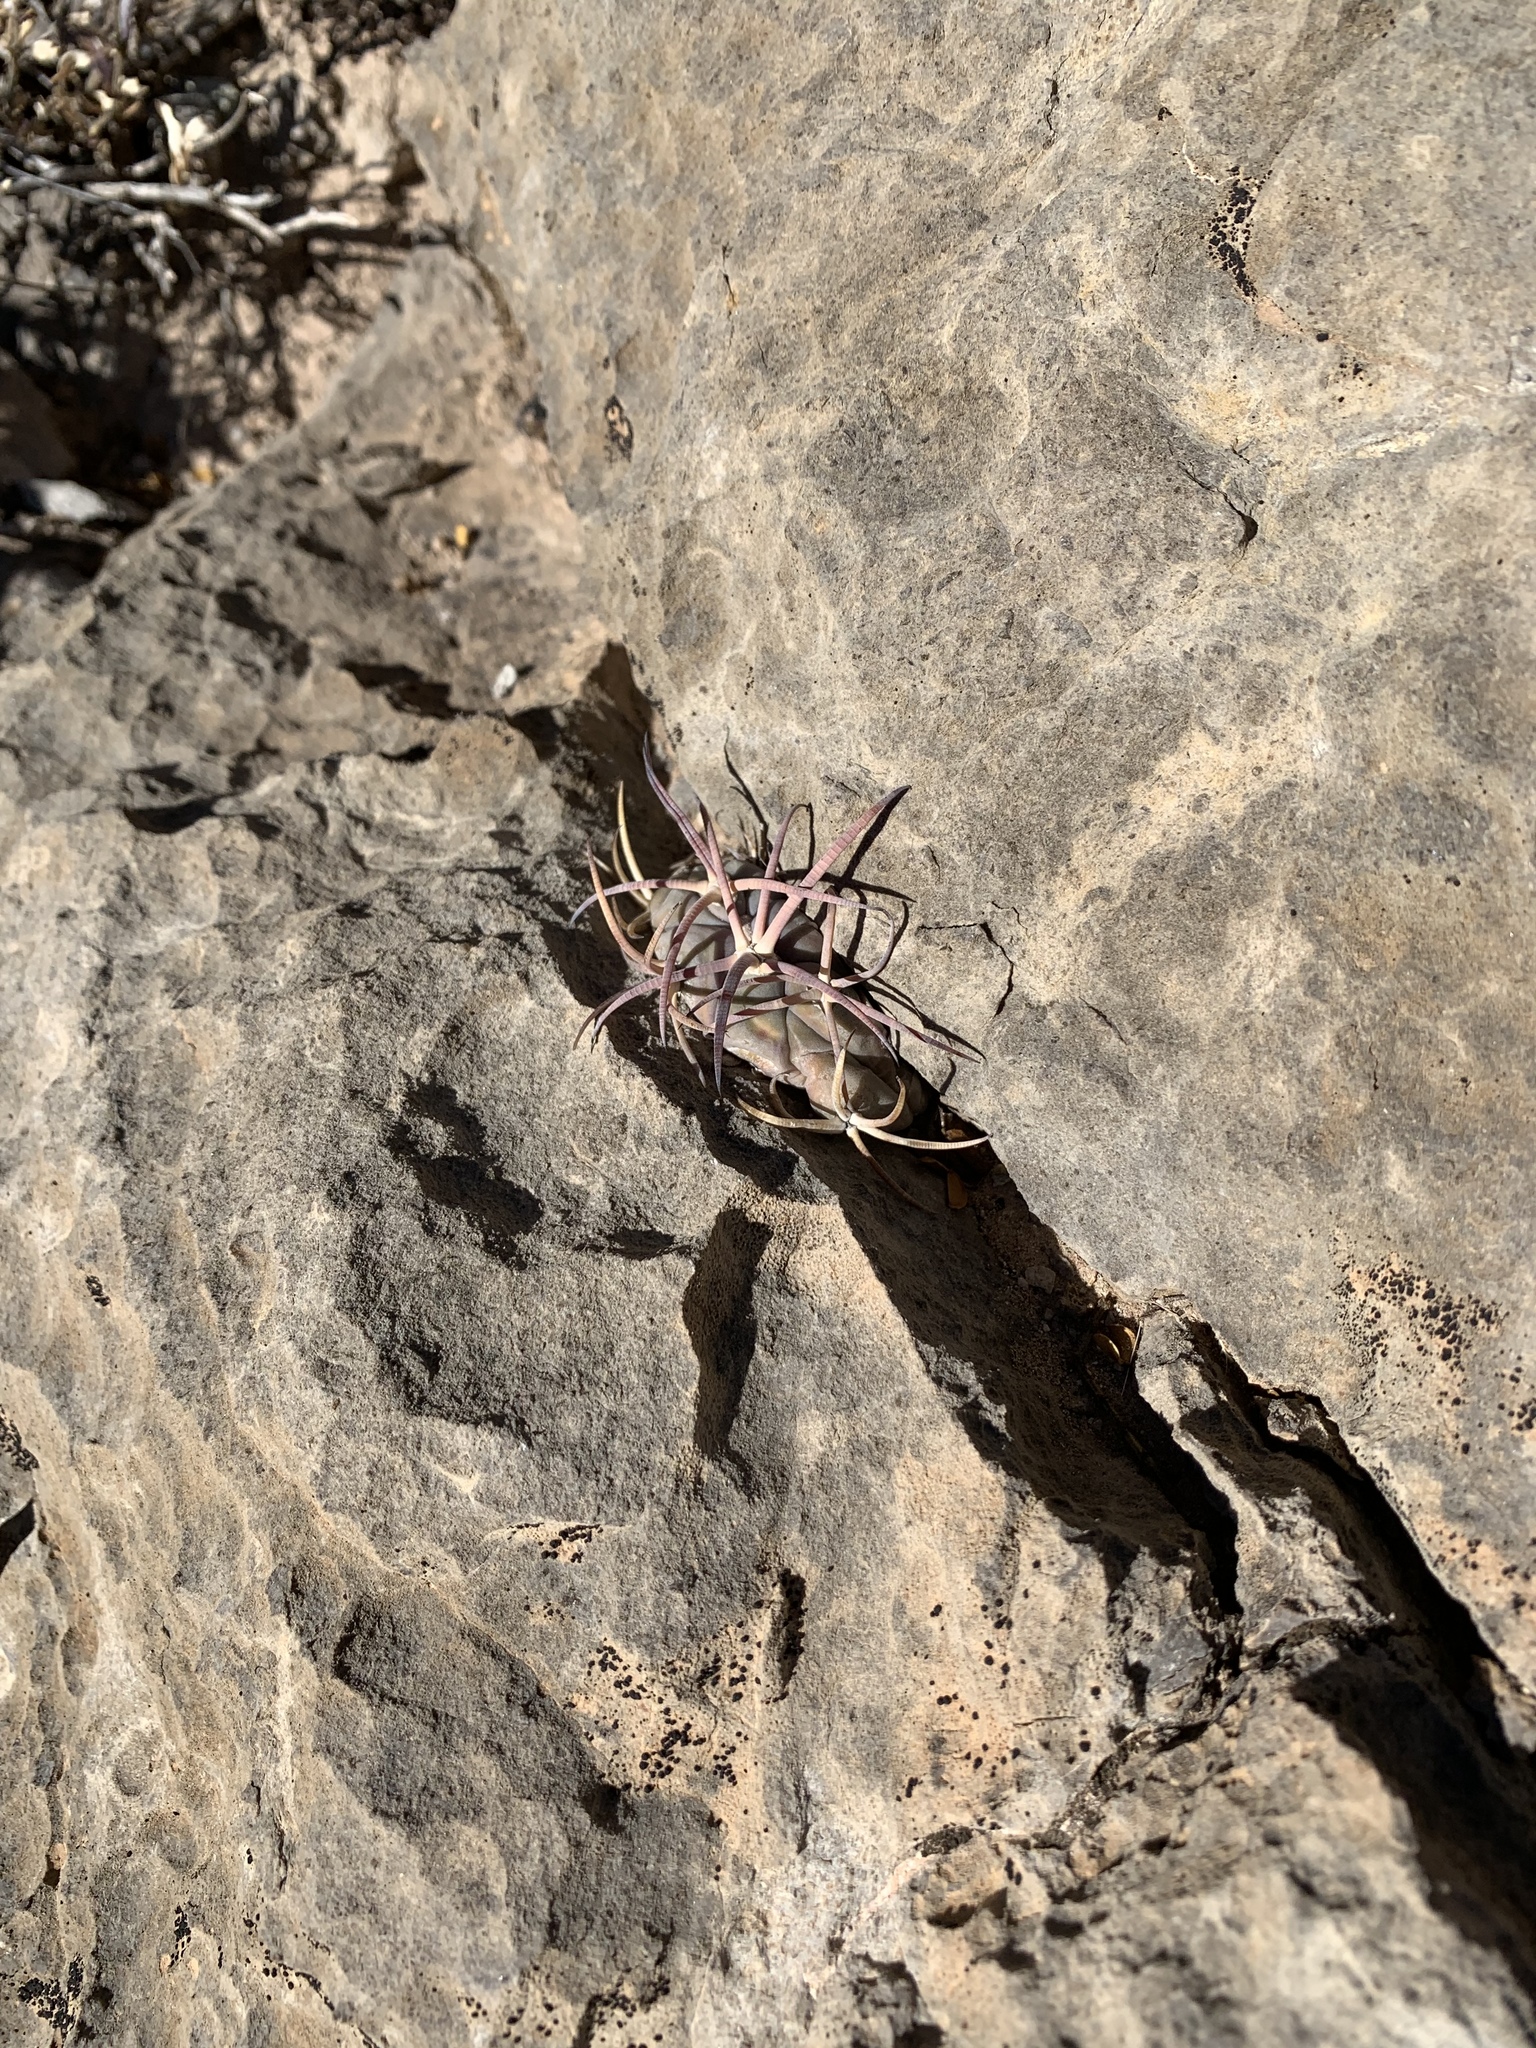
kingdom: Plantae
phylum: Tracheophyta
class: Magnoliopsida
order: Caryophyllales
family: Cactaceae
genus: Echinocactus
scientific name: Echinocactus horizonthalonius
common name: Devilshead
